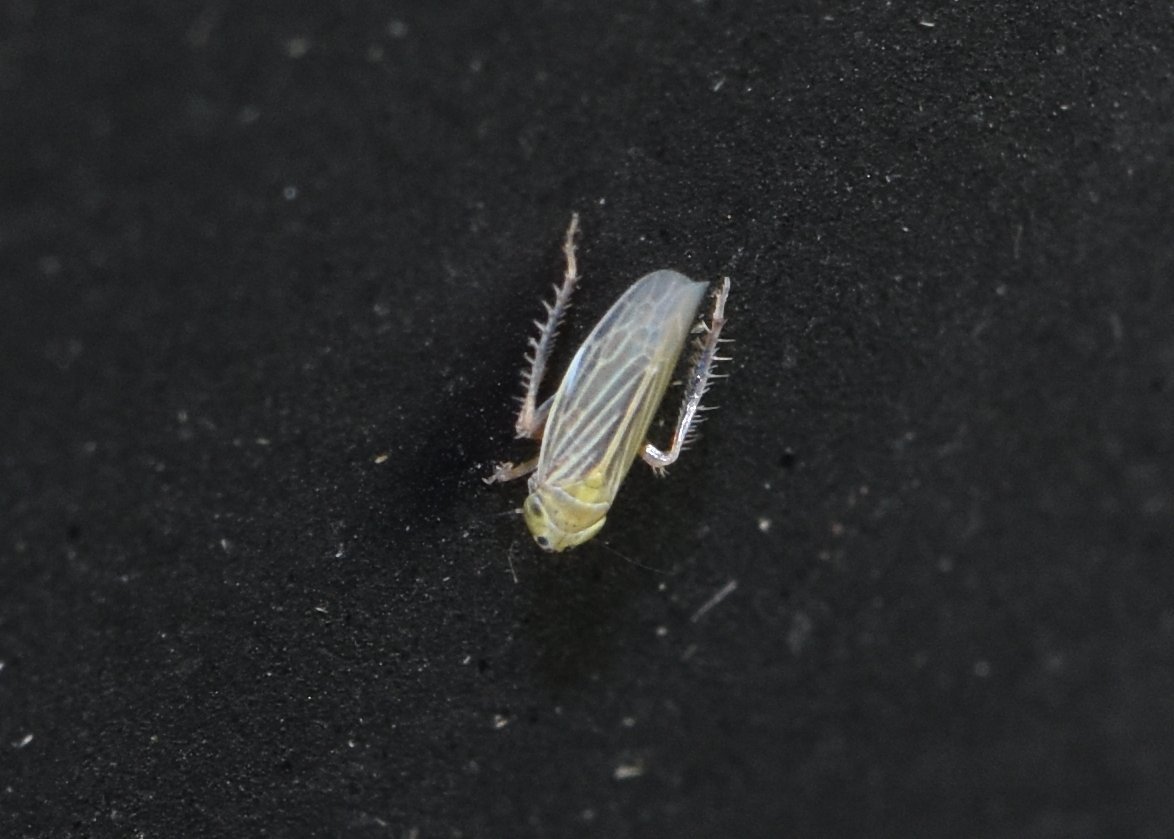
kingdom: Animalia
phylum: Arthropoda
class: Insecta
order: Hemiptera
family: Cicadellidae
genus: Graminella
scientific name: Graminella cognita
